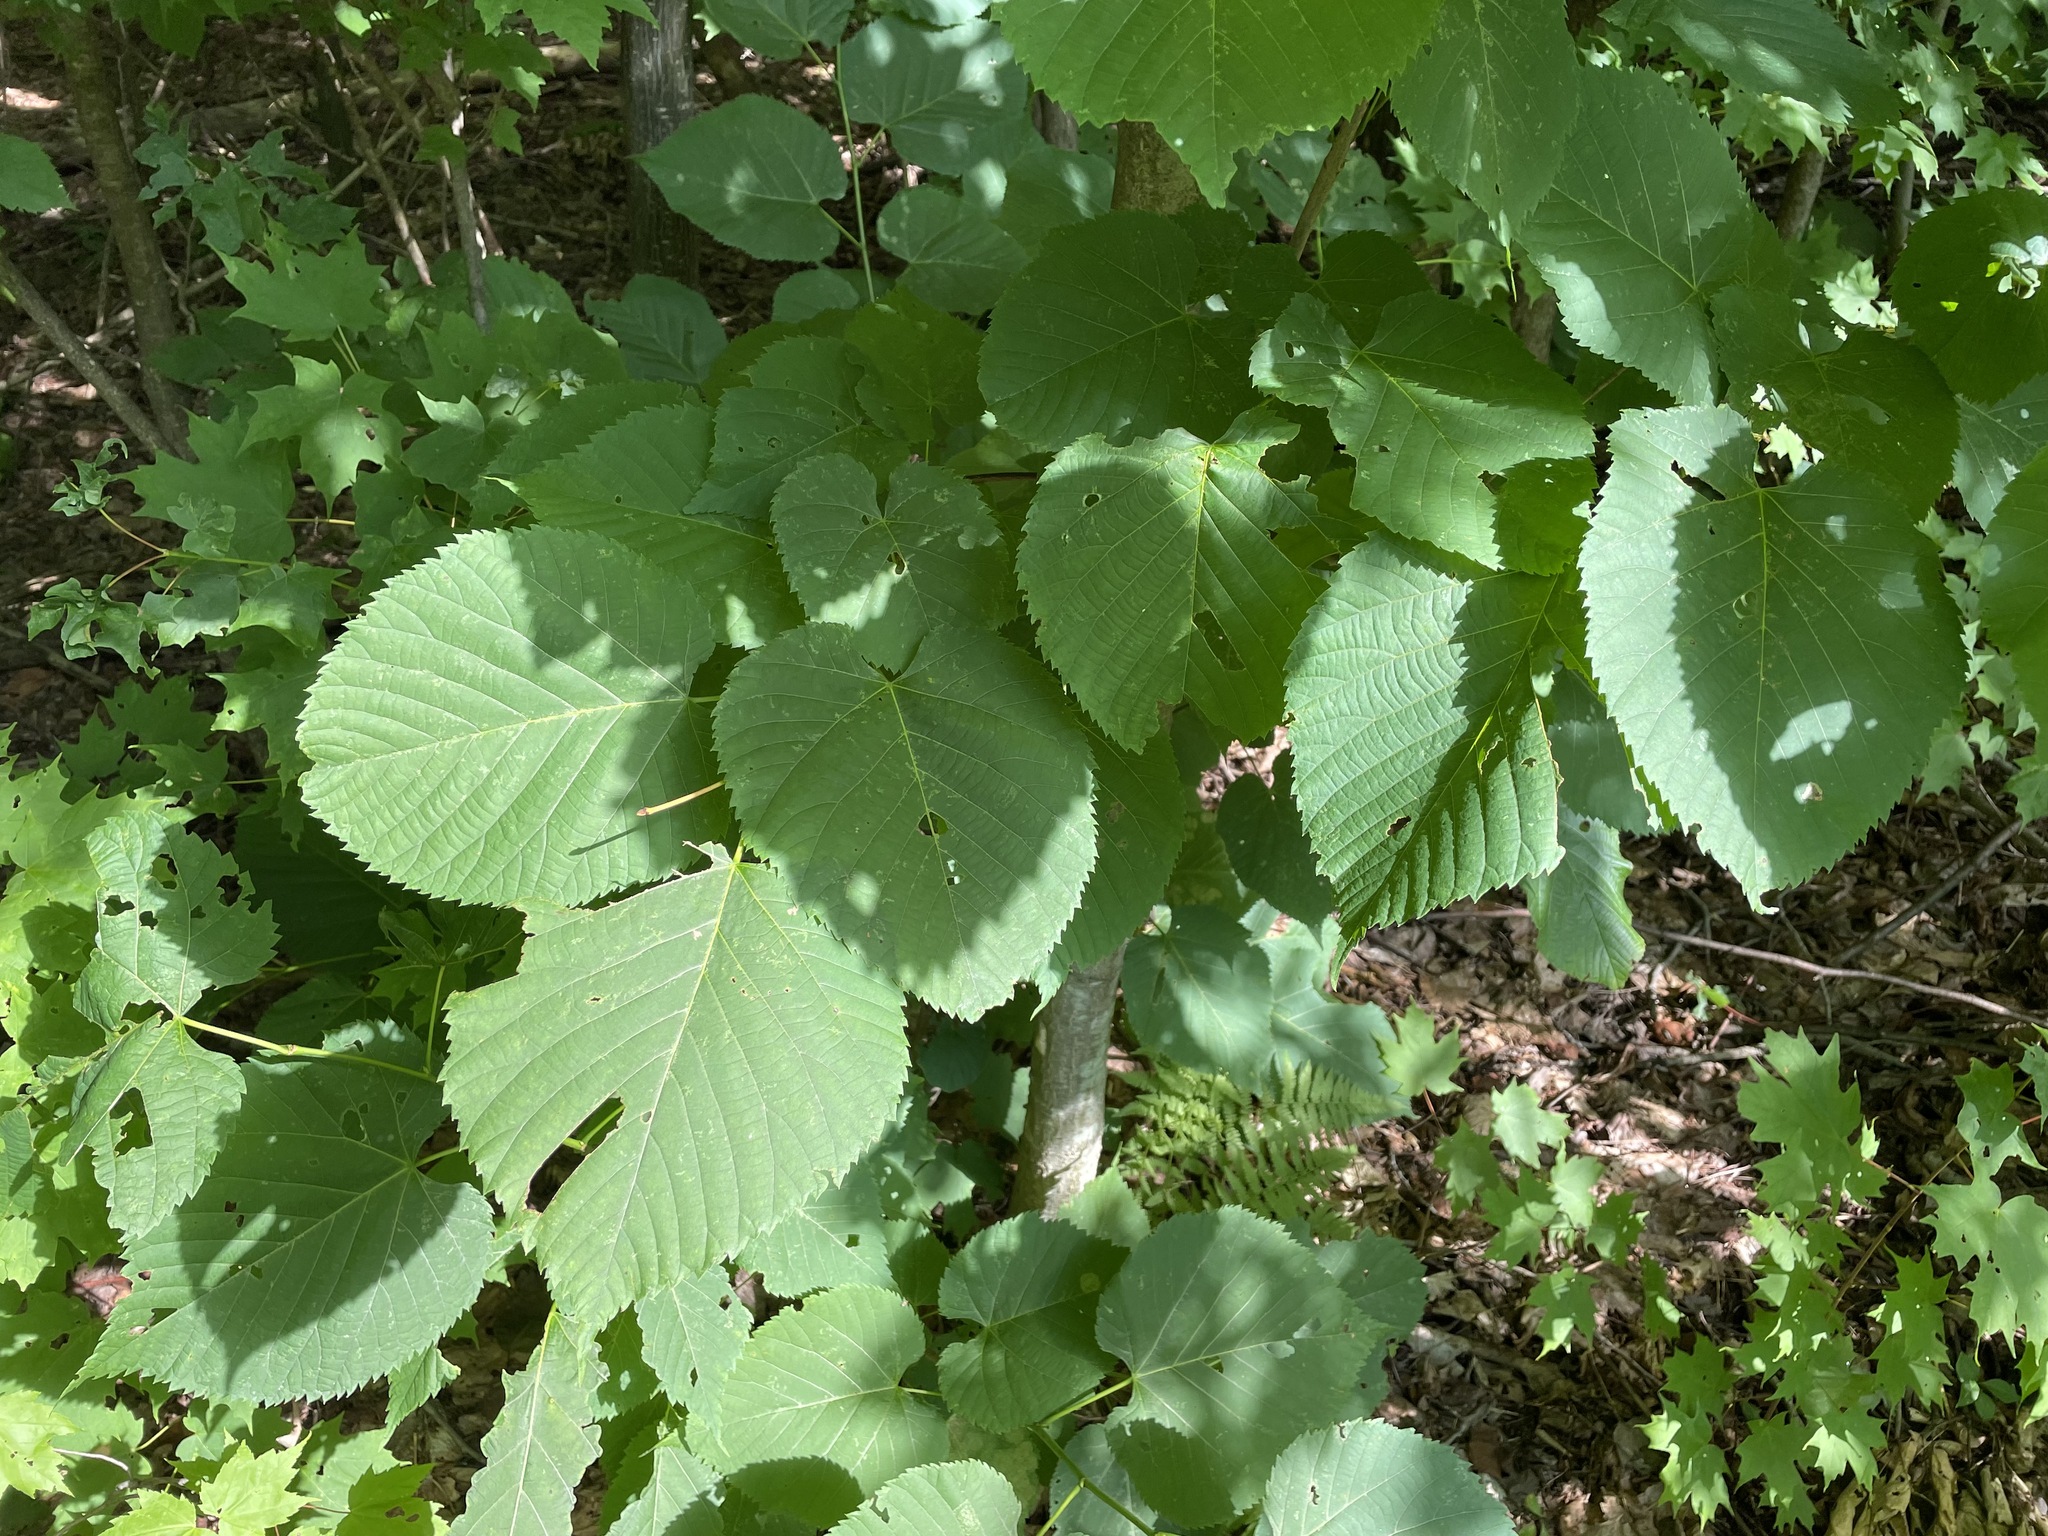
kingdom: Plantae
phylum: Tracheophyta
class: Magnoliopsida
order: Malvales
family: Malvaceae
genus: Tilia
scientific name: Tilia americana
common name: Basswood
